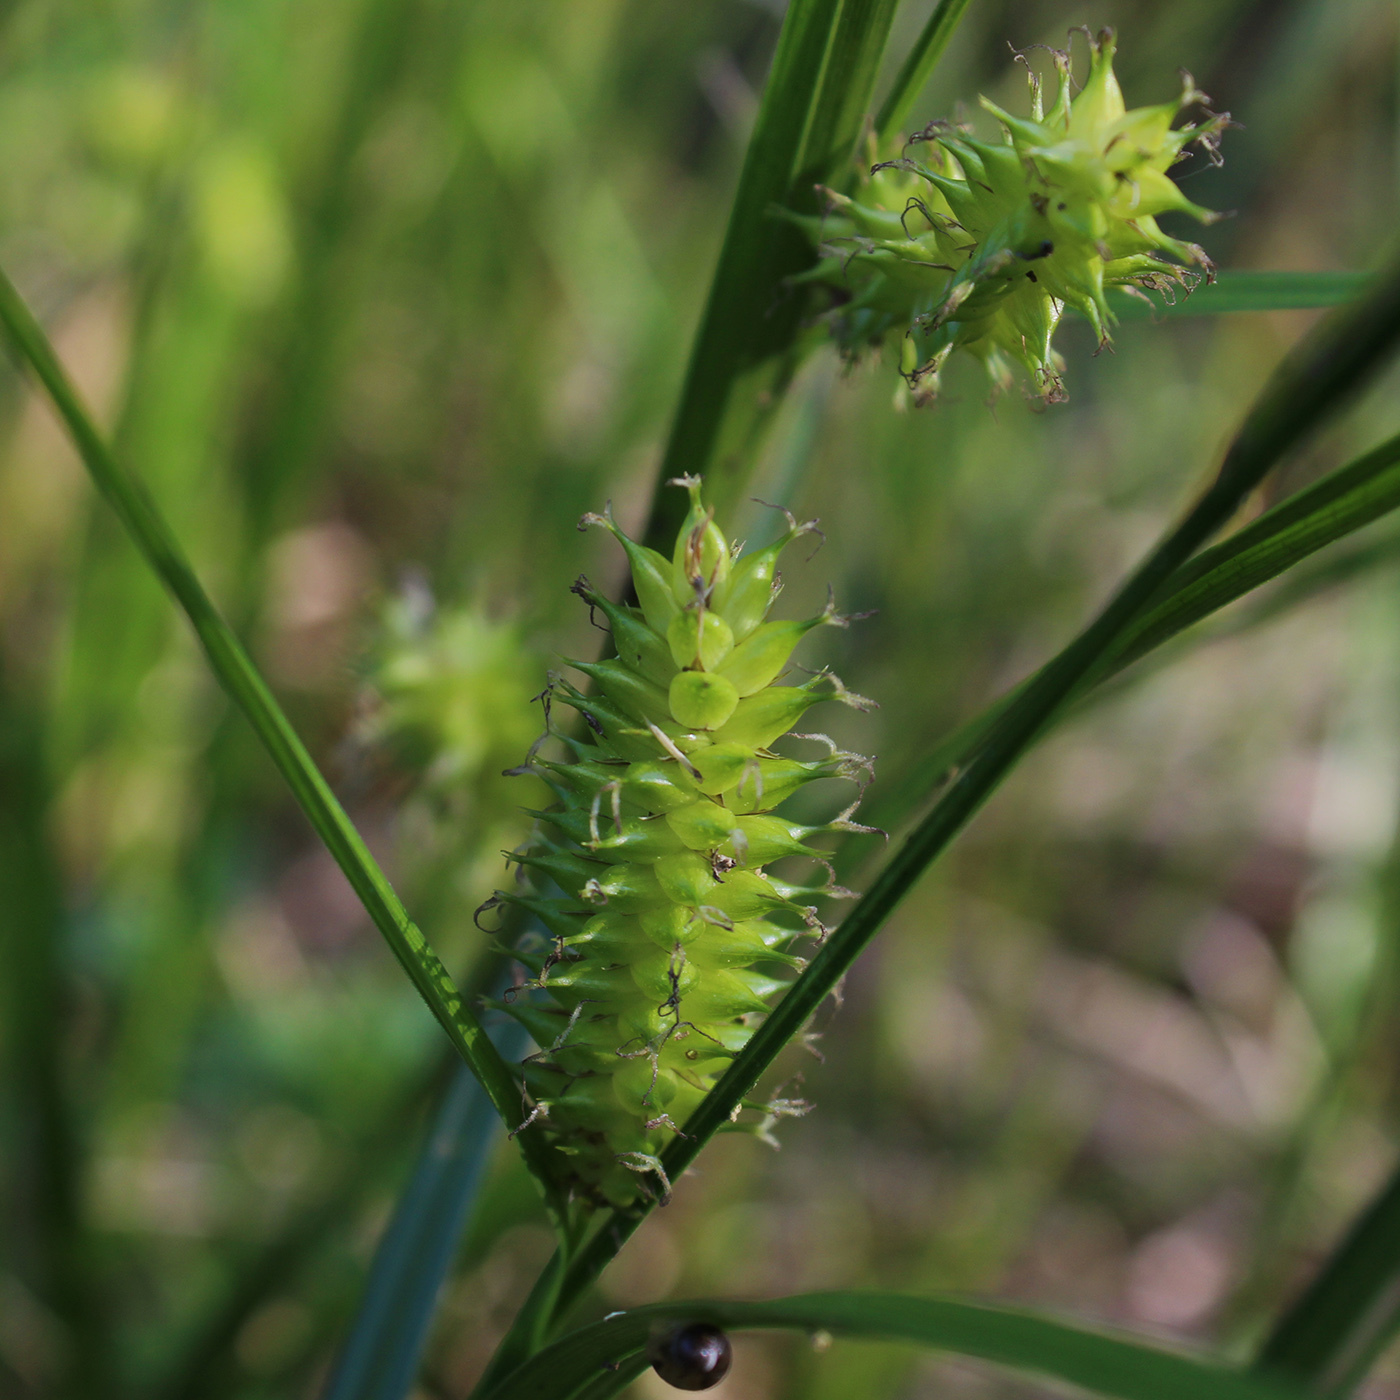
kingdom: Plantae
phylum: Tracheophyta
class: Liliopsida
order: Poales
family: Cyperaceae
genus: Carex
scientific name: Carex vesicaria
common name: Bladder-sedge
